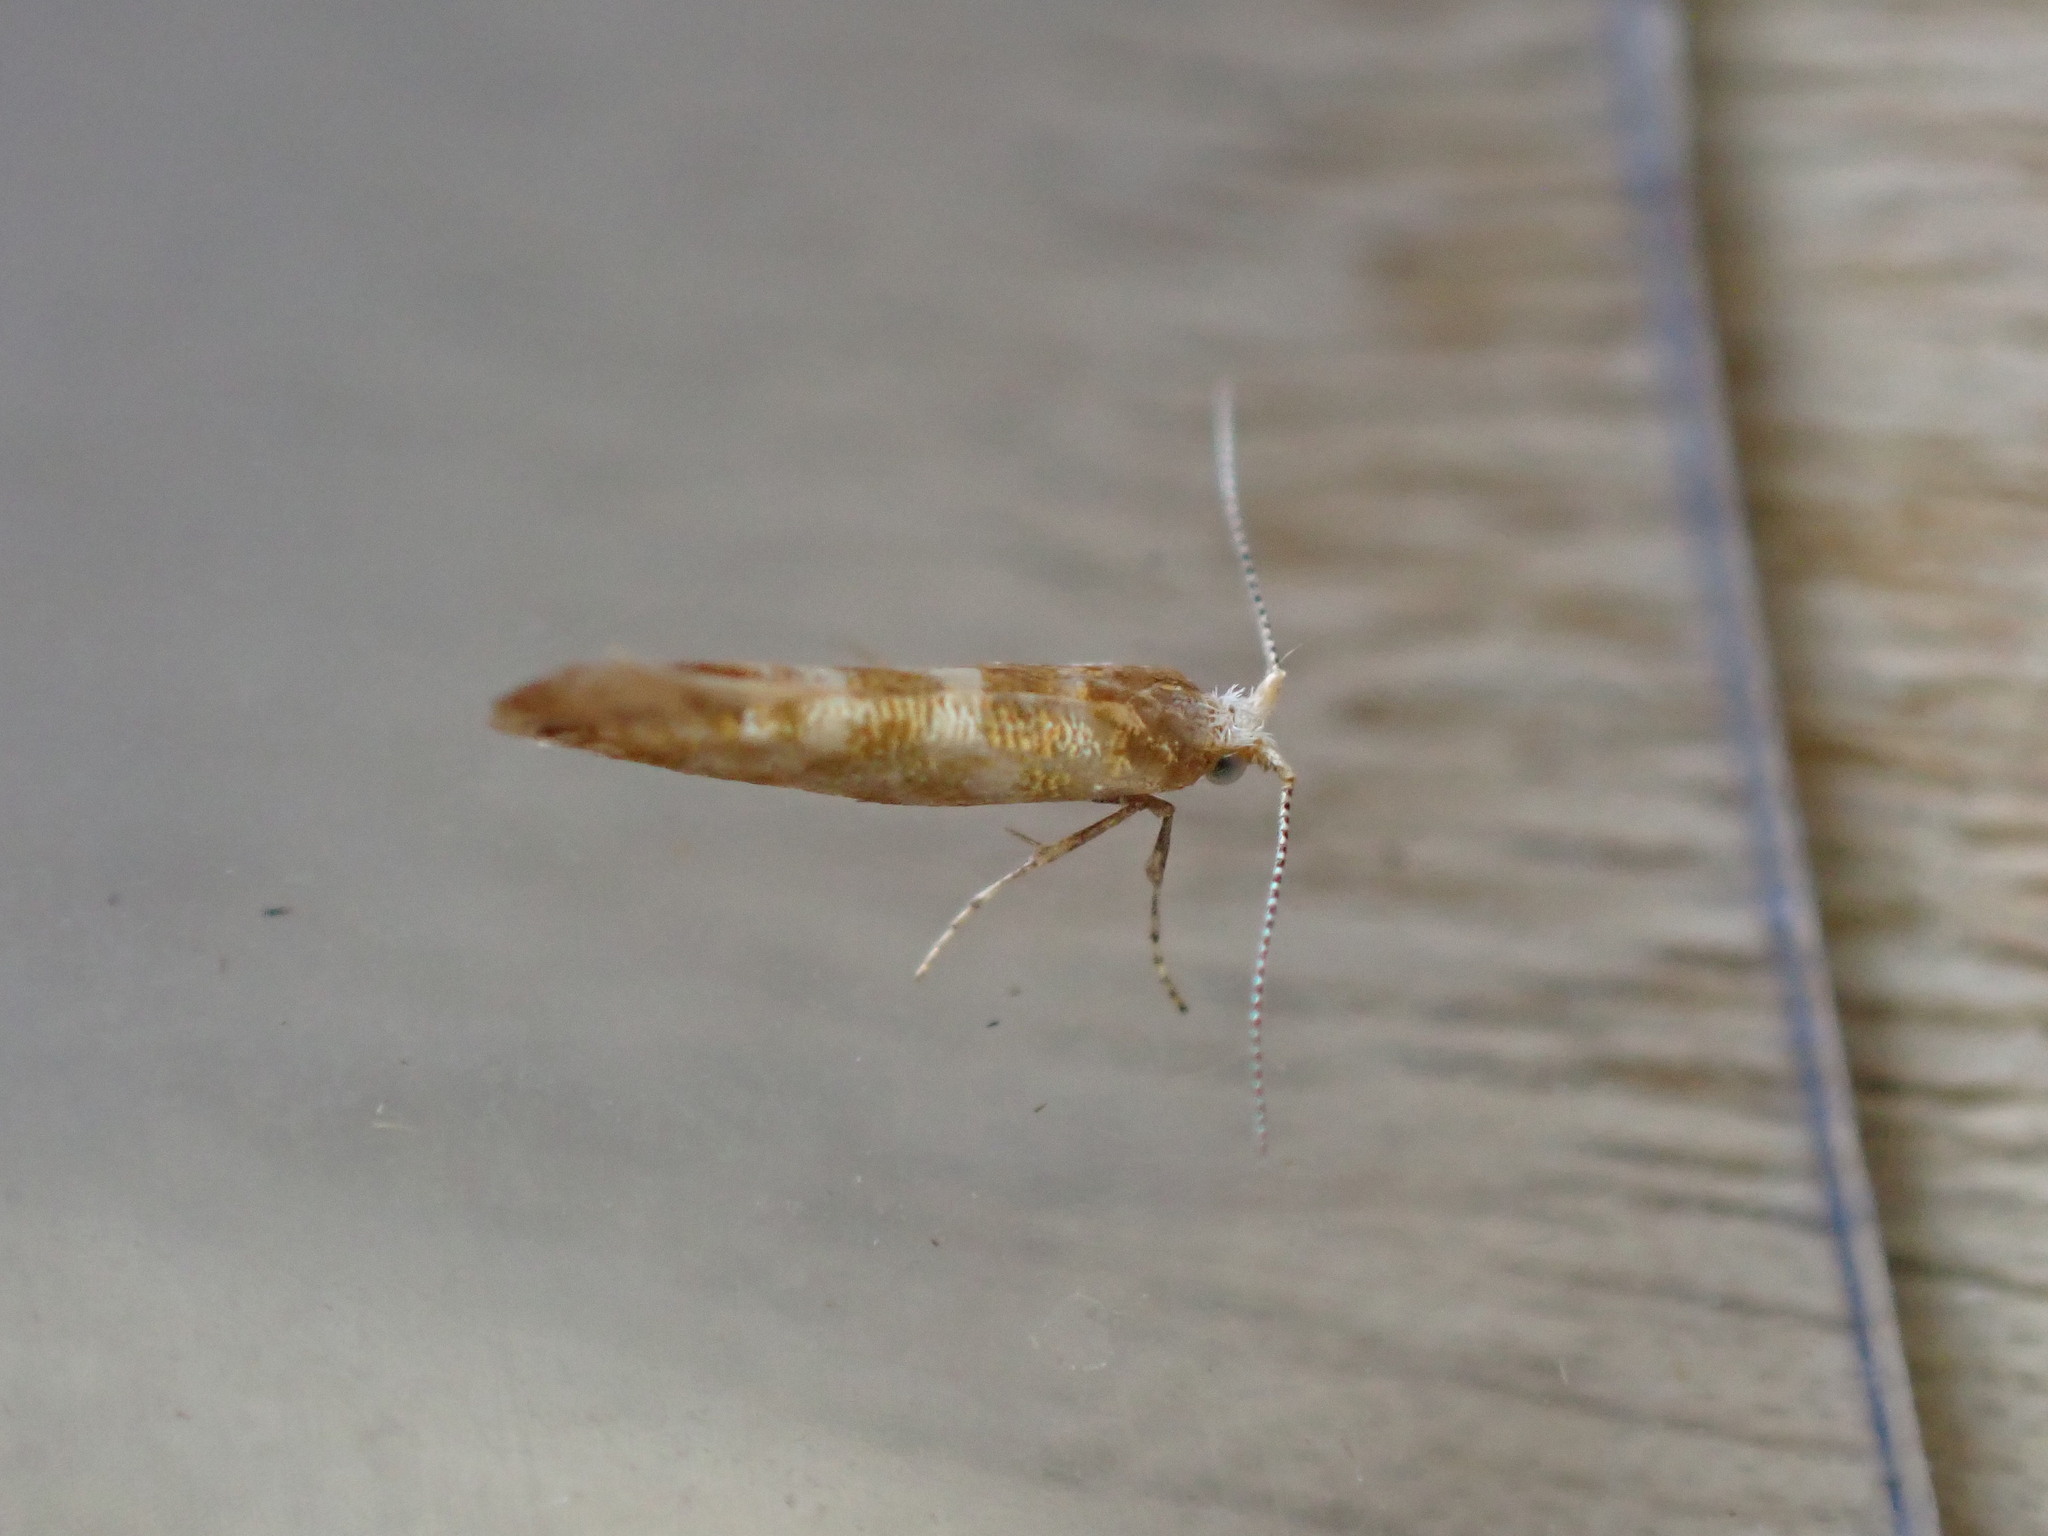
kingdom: Animalia
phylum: Arthropoda
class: Insecta
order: Lepidoptera
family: Argyresthiidae
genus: Argyresthia
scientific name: Argyresthia cupressella
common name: Cypress tip moth
